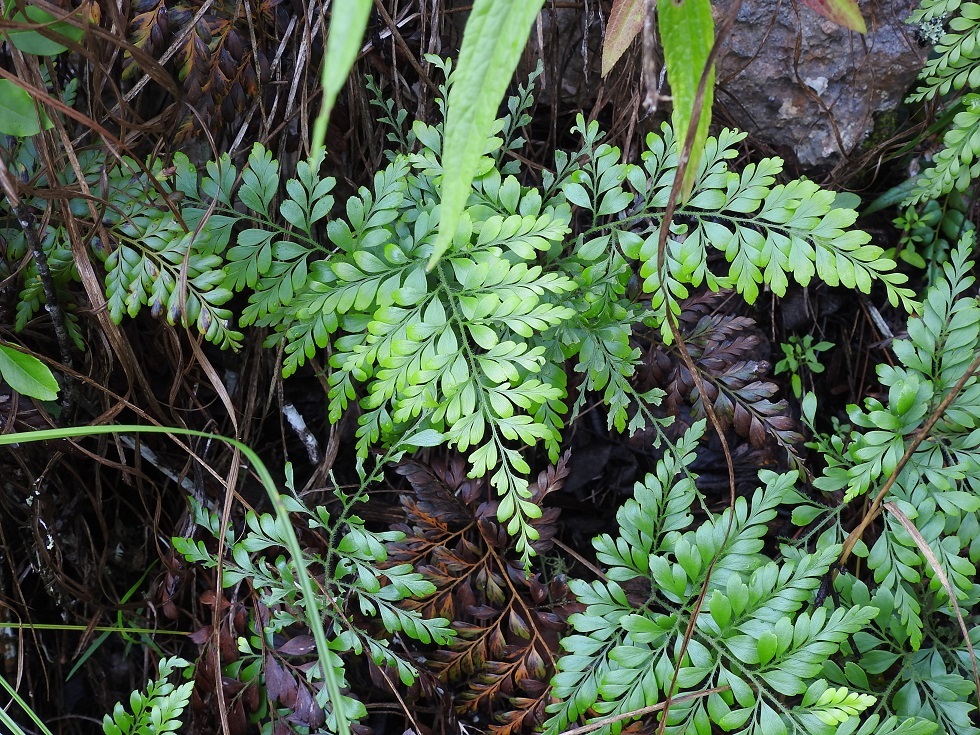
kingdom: Plantae
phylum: Tracheophyta
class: Polypodiopsida
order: Schizaeales
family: Anemiaceae
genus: Anemia
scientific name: Anemia adiantifolia
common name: Pine fern
